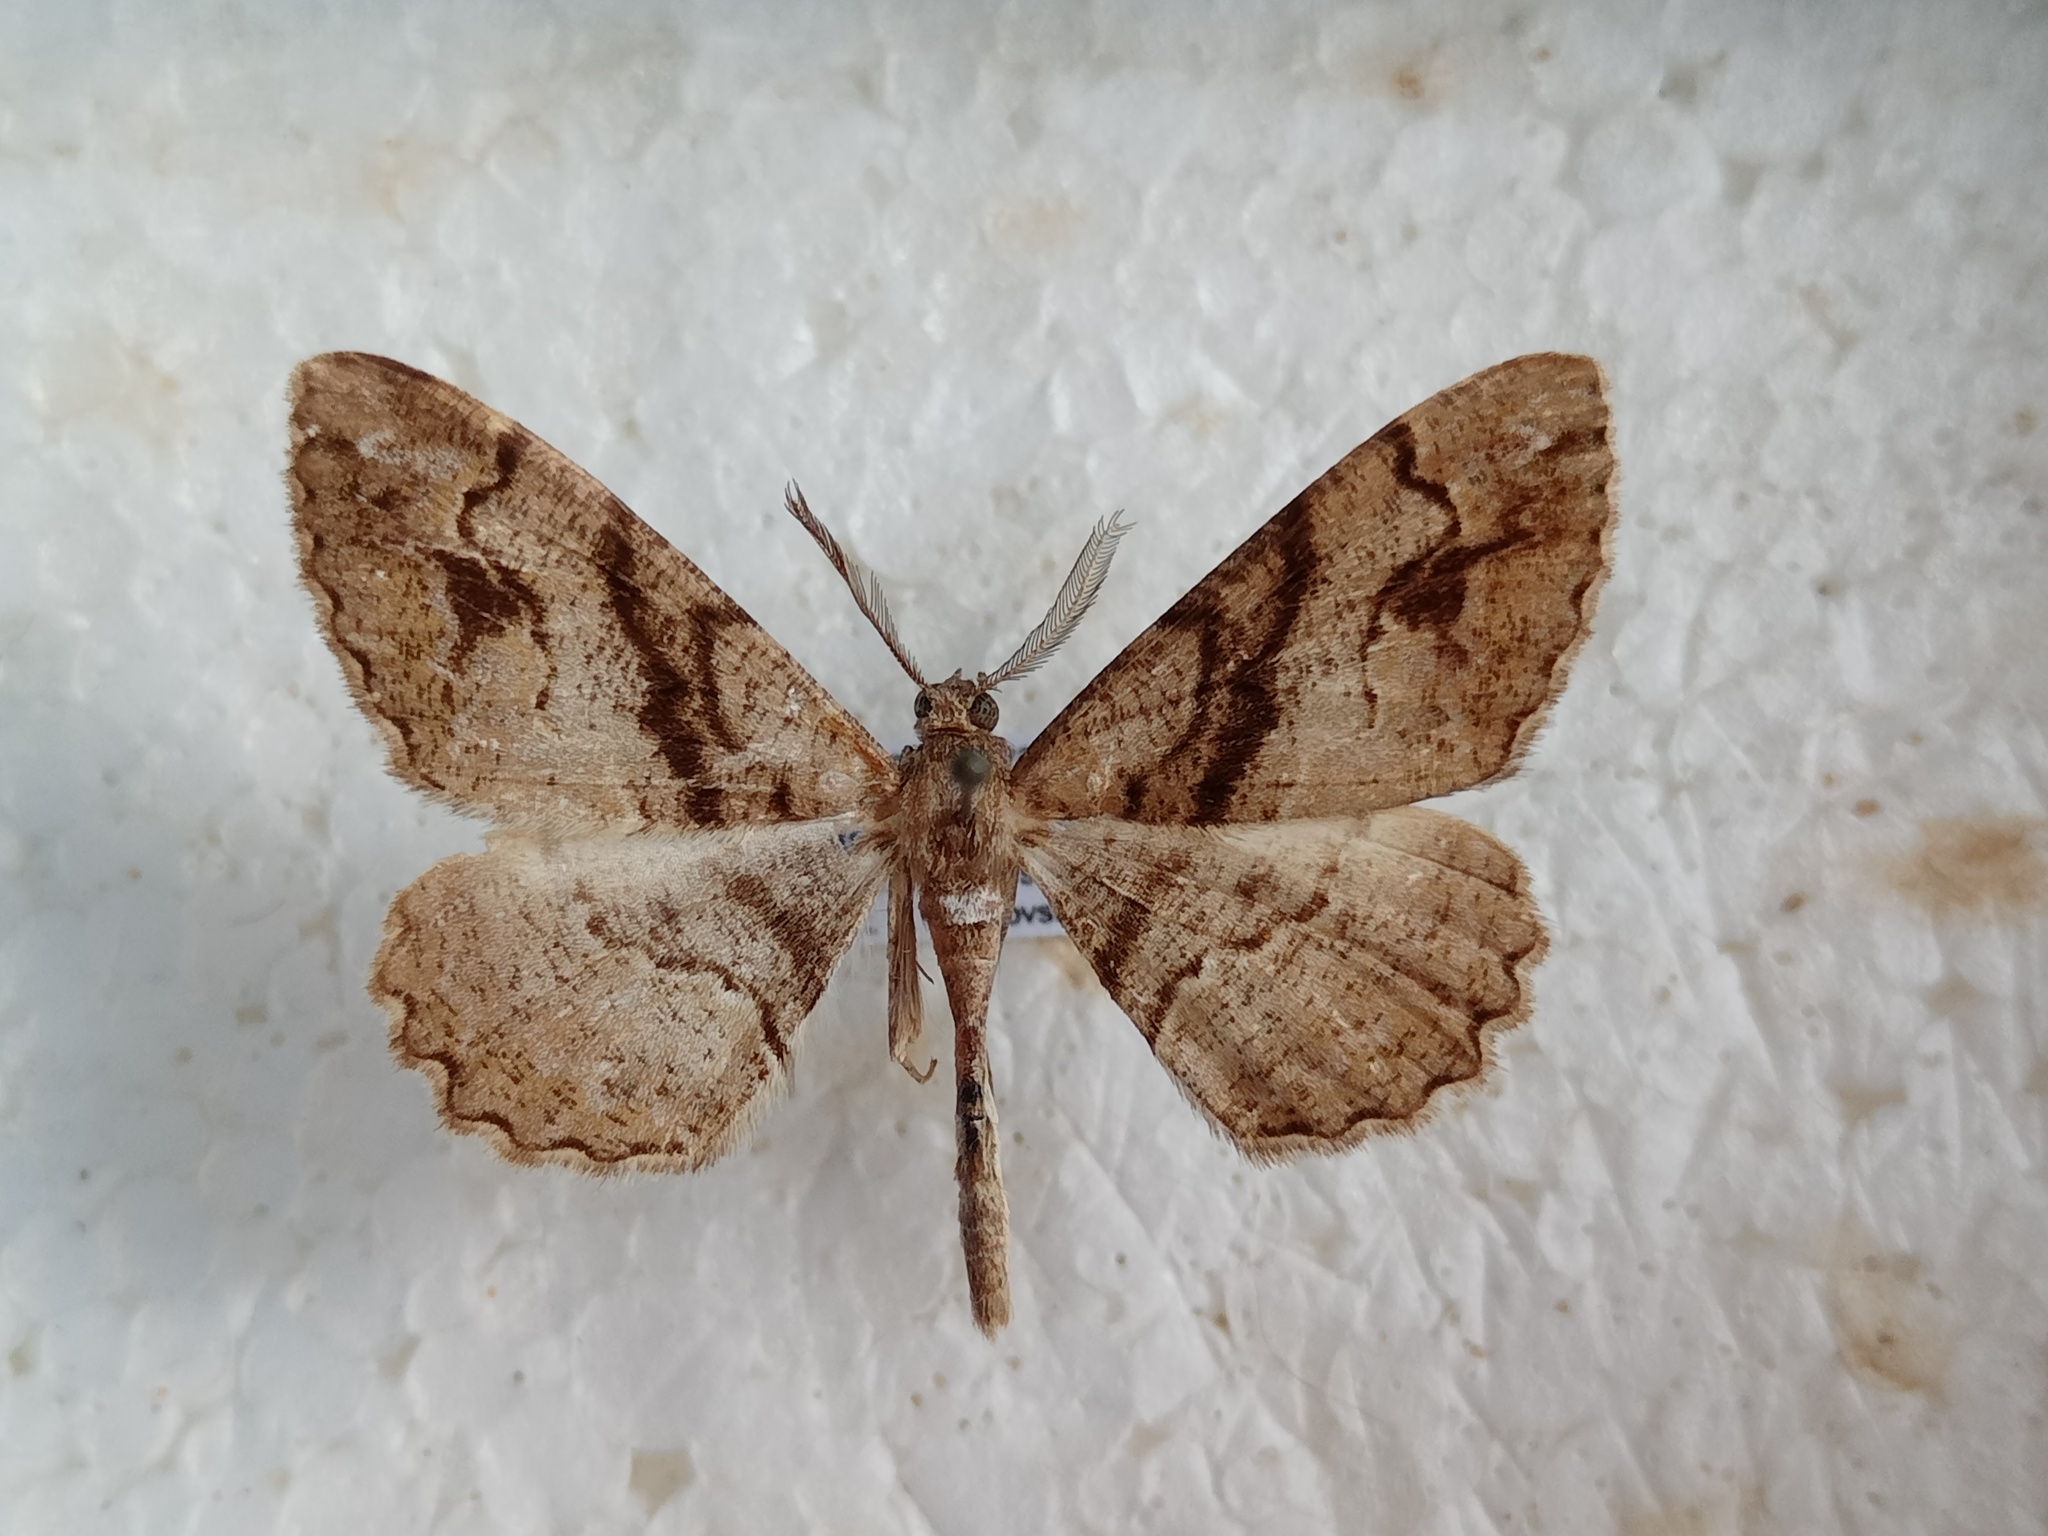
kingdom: Animalia
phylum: Arthropoda
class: Insecta
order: Lepidoptera
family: Geometridae
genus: Alcis
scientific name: Alcis deversata
